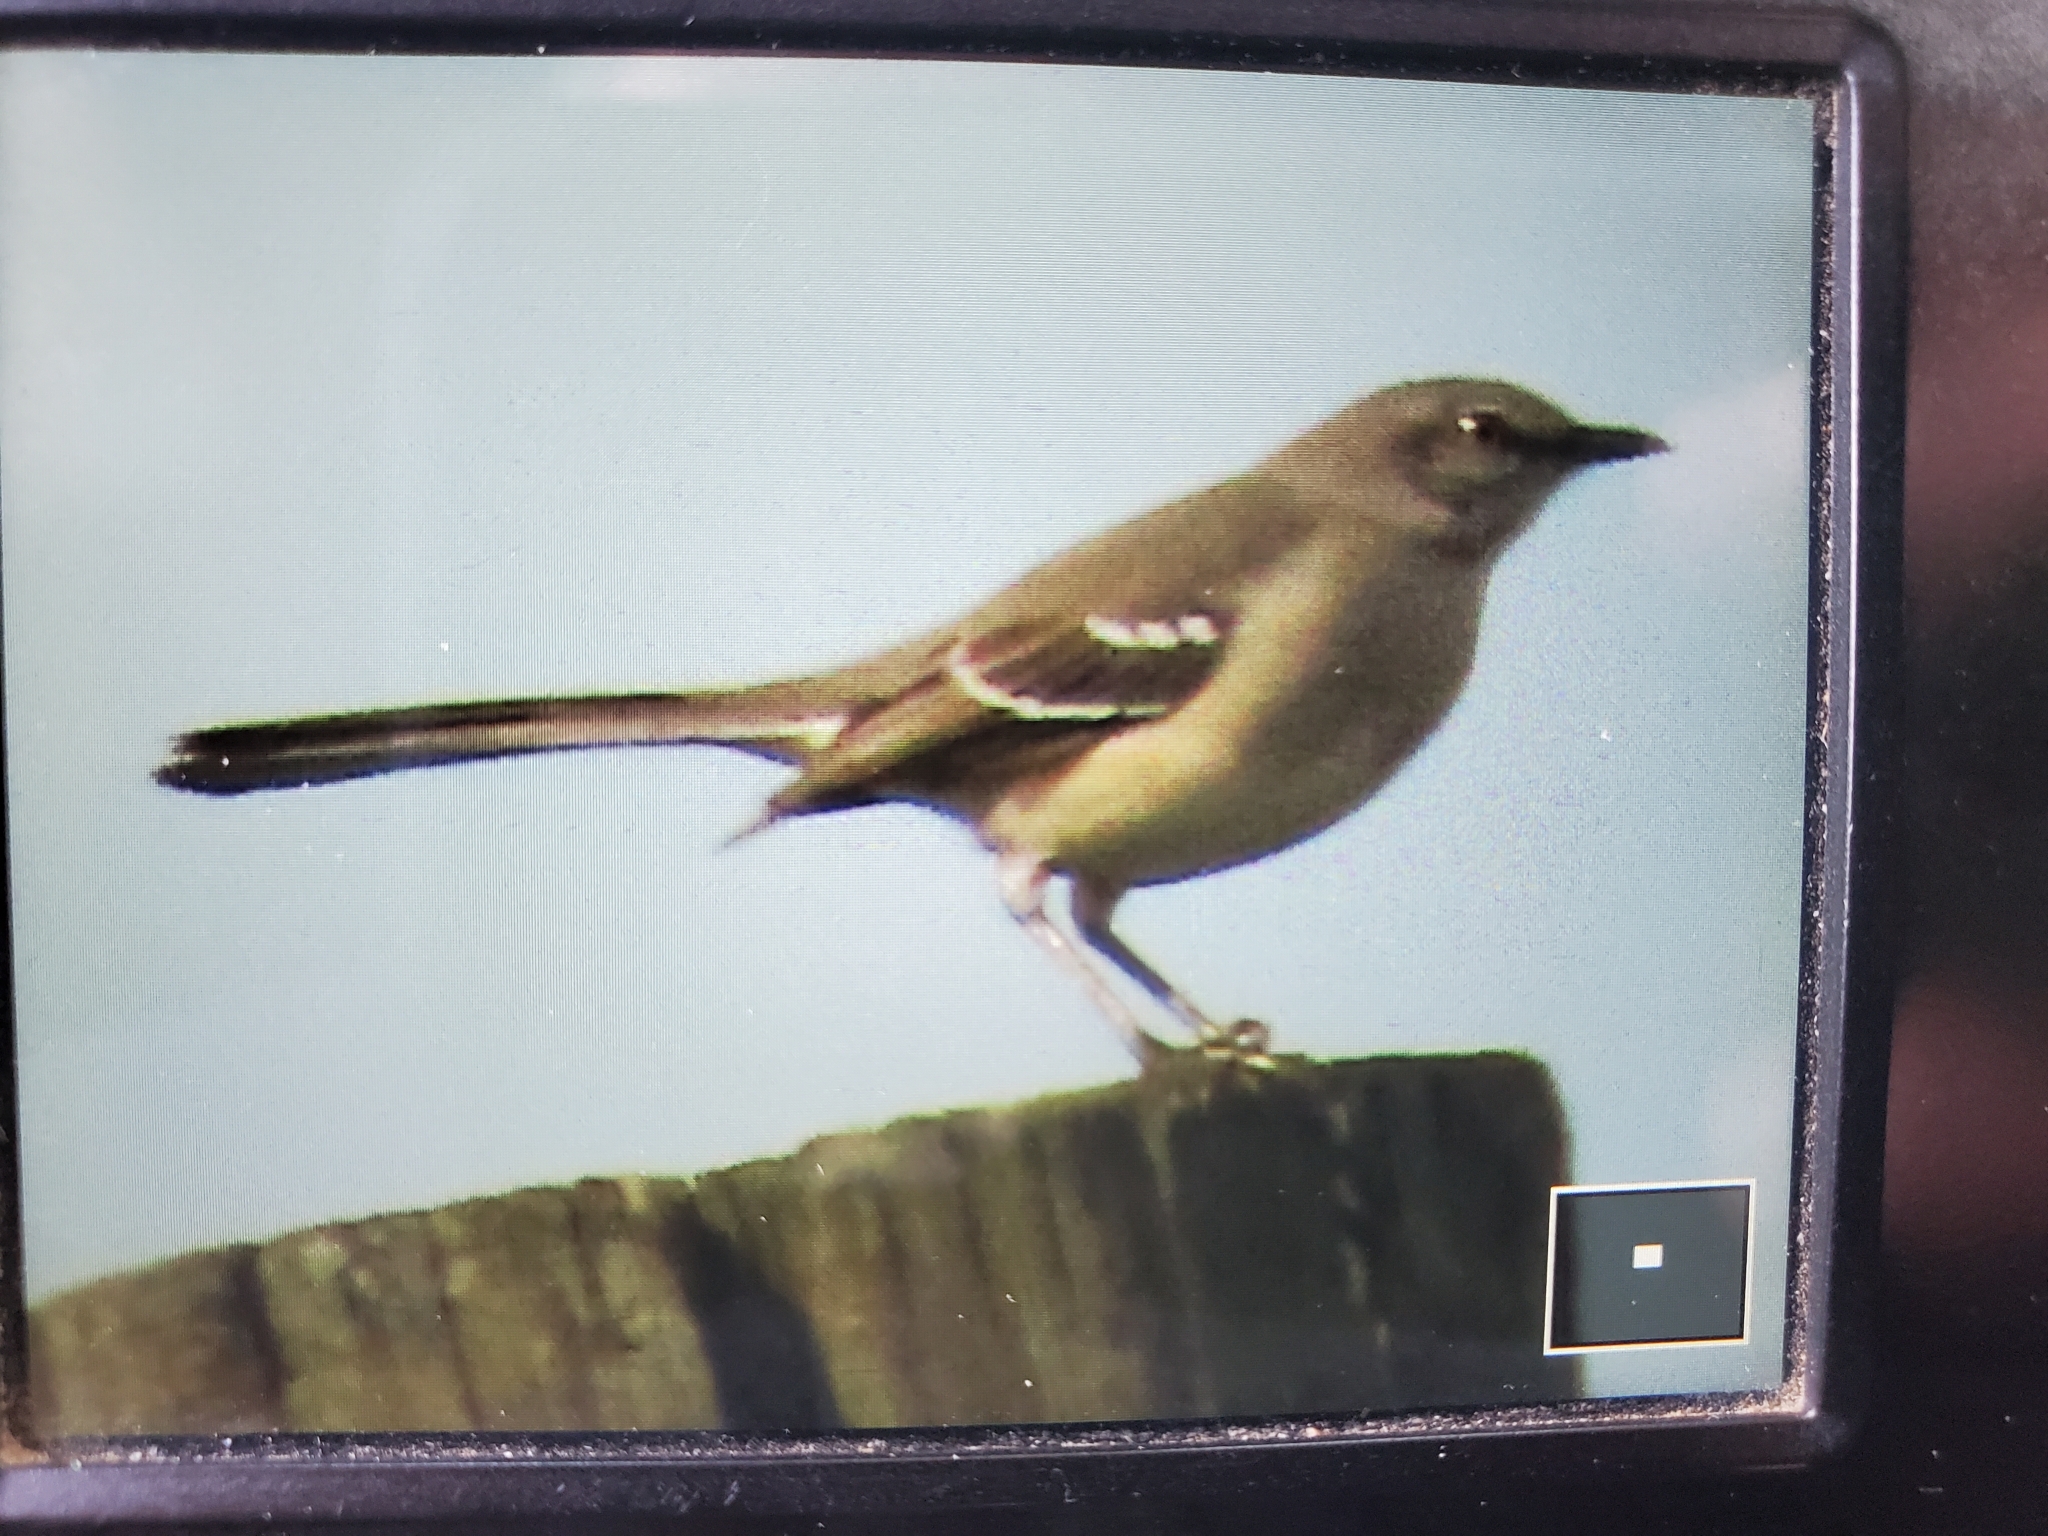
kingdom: Animalia
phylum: Chordata
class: Aves
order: Passeriformes
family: Mimidae
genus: Mimus
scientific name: Mimus polyglottos
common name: Northern mockingbird
